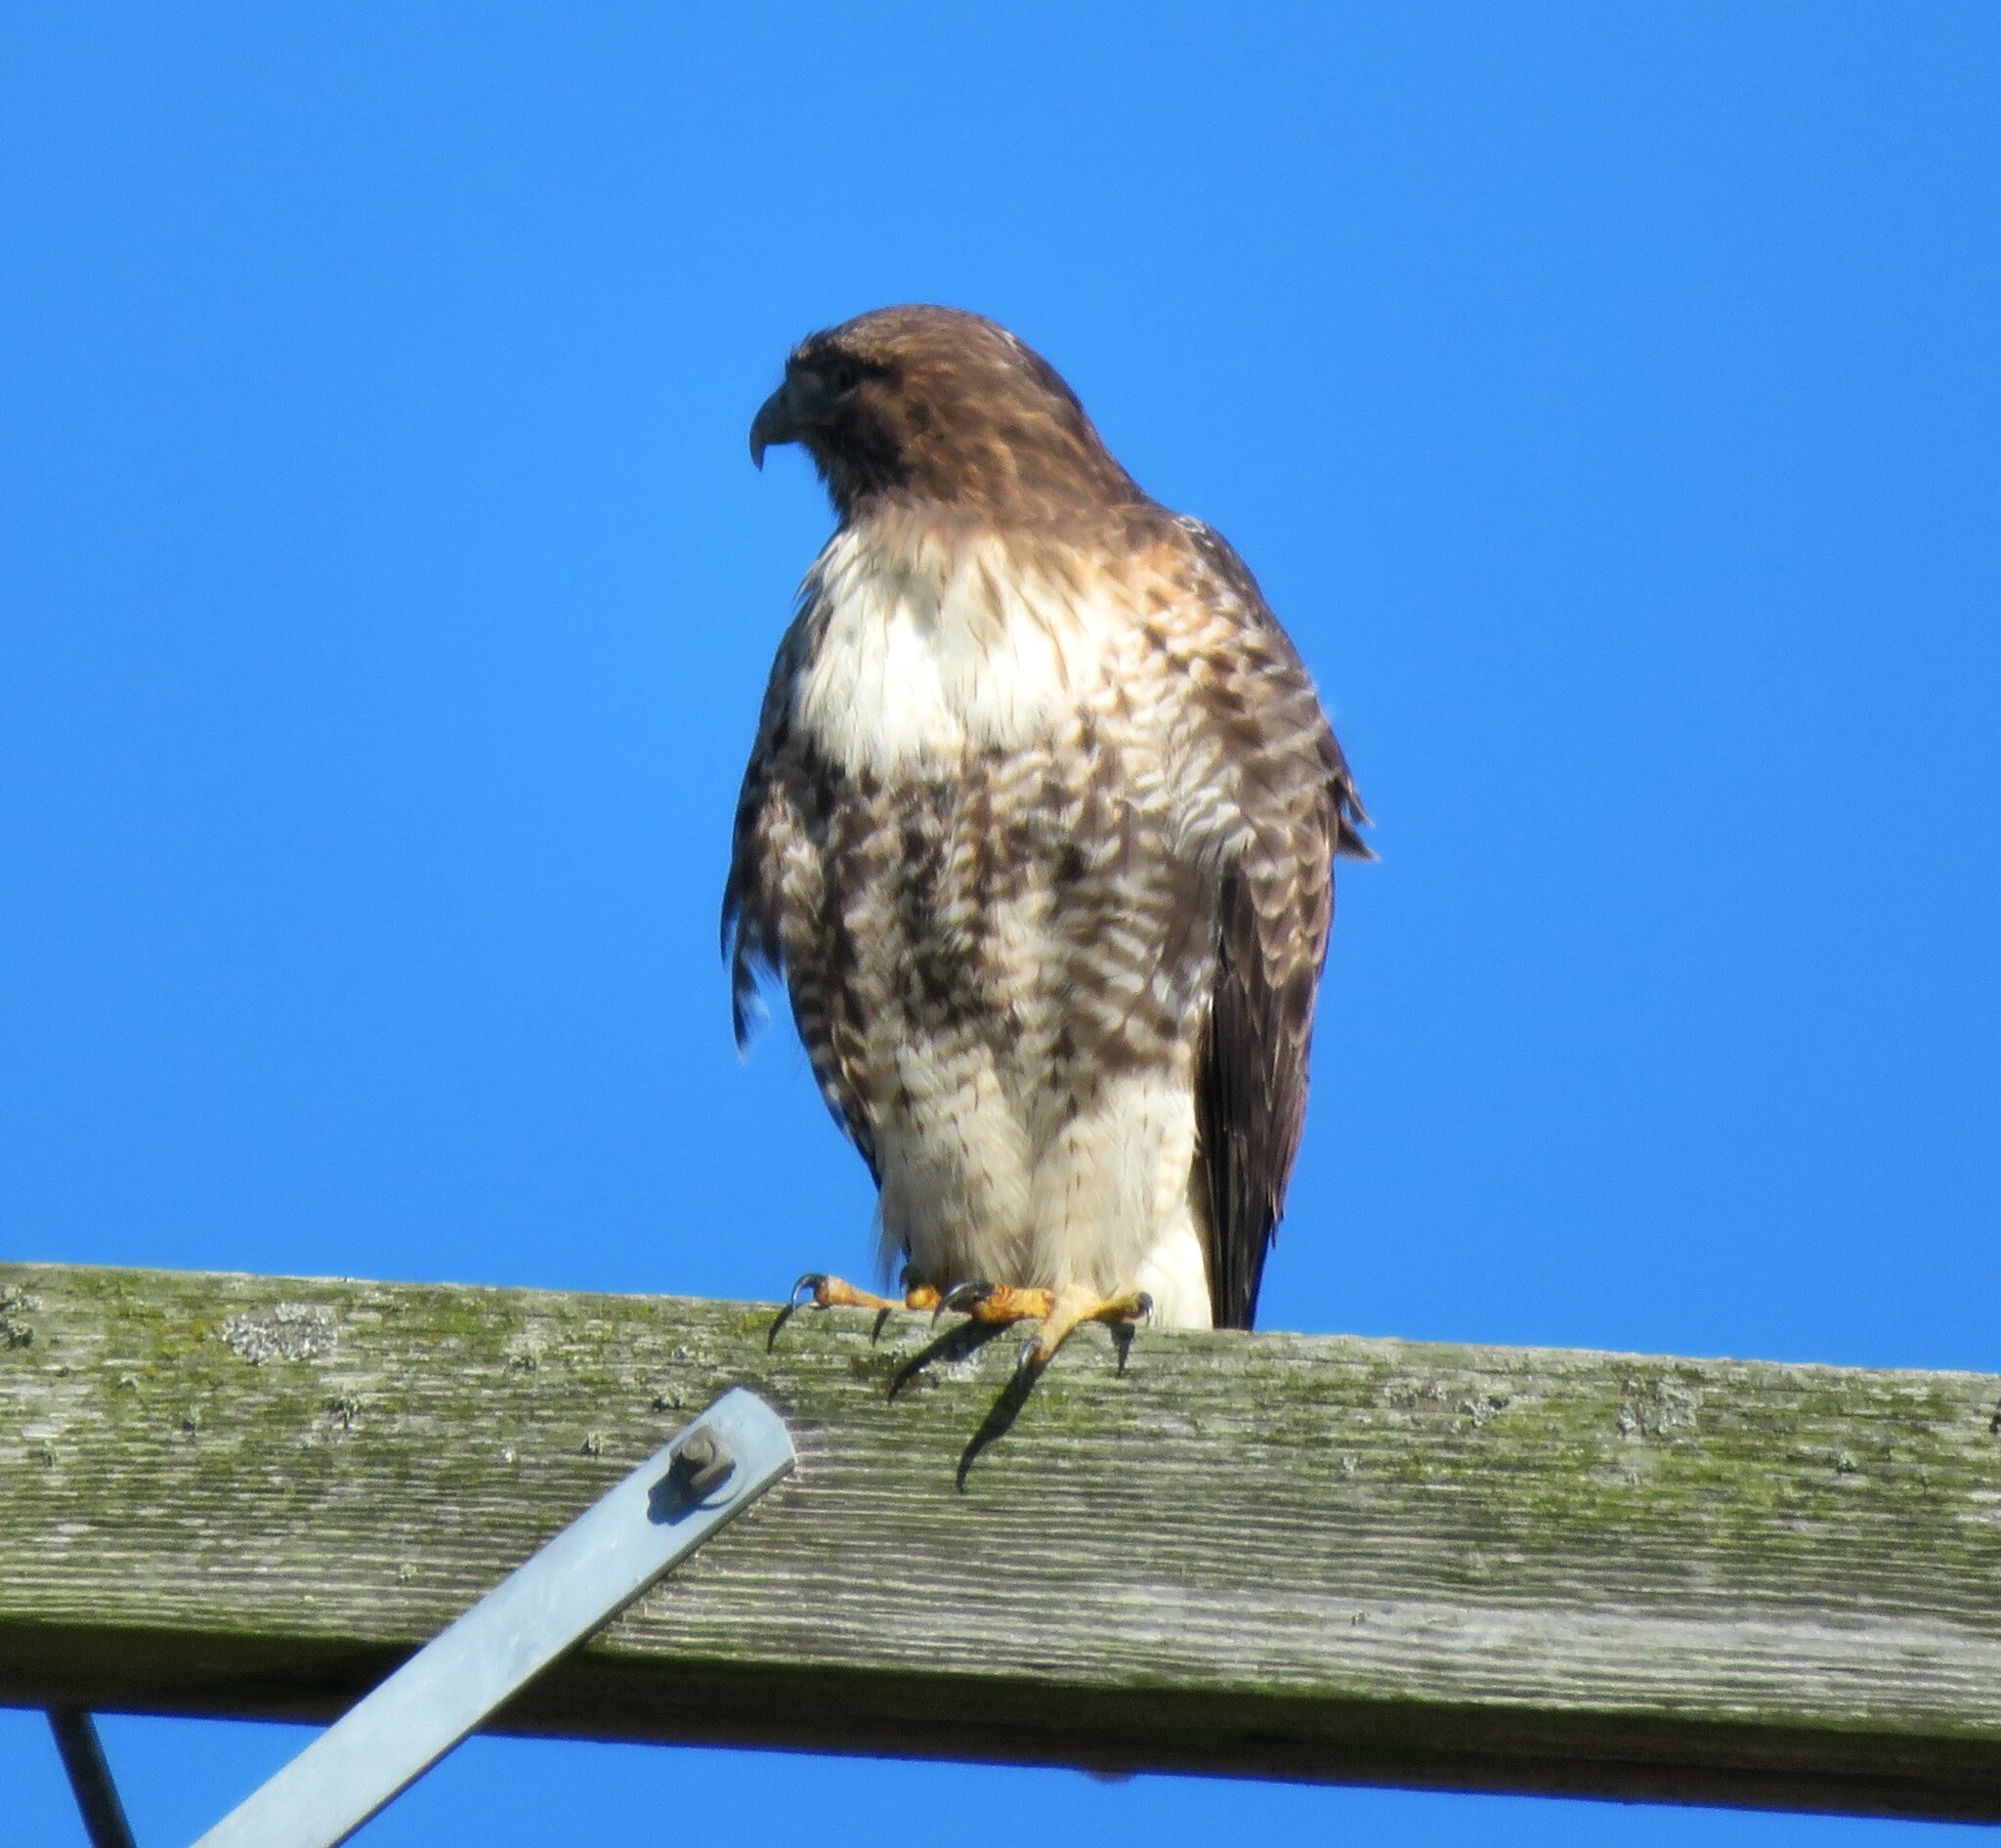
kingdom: Animalia
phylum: Chordata
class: Aves
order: Accipitriformes
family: Accipitridae
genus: Buteo
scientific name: Buteo jamaicensis
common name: Red-tailed hawk
